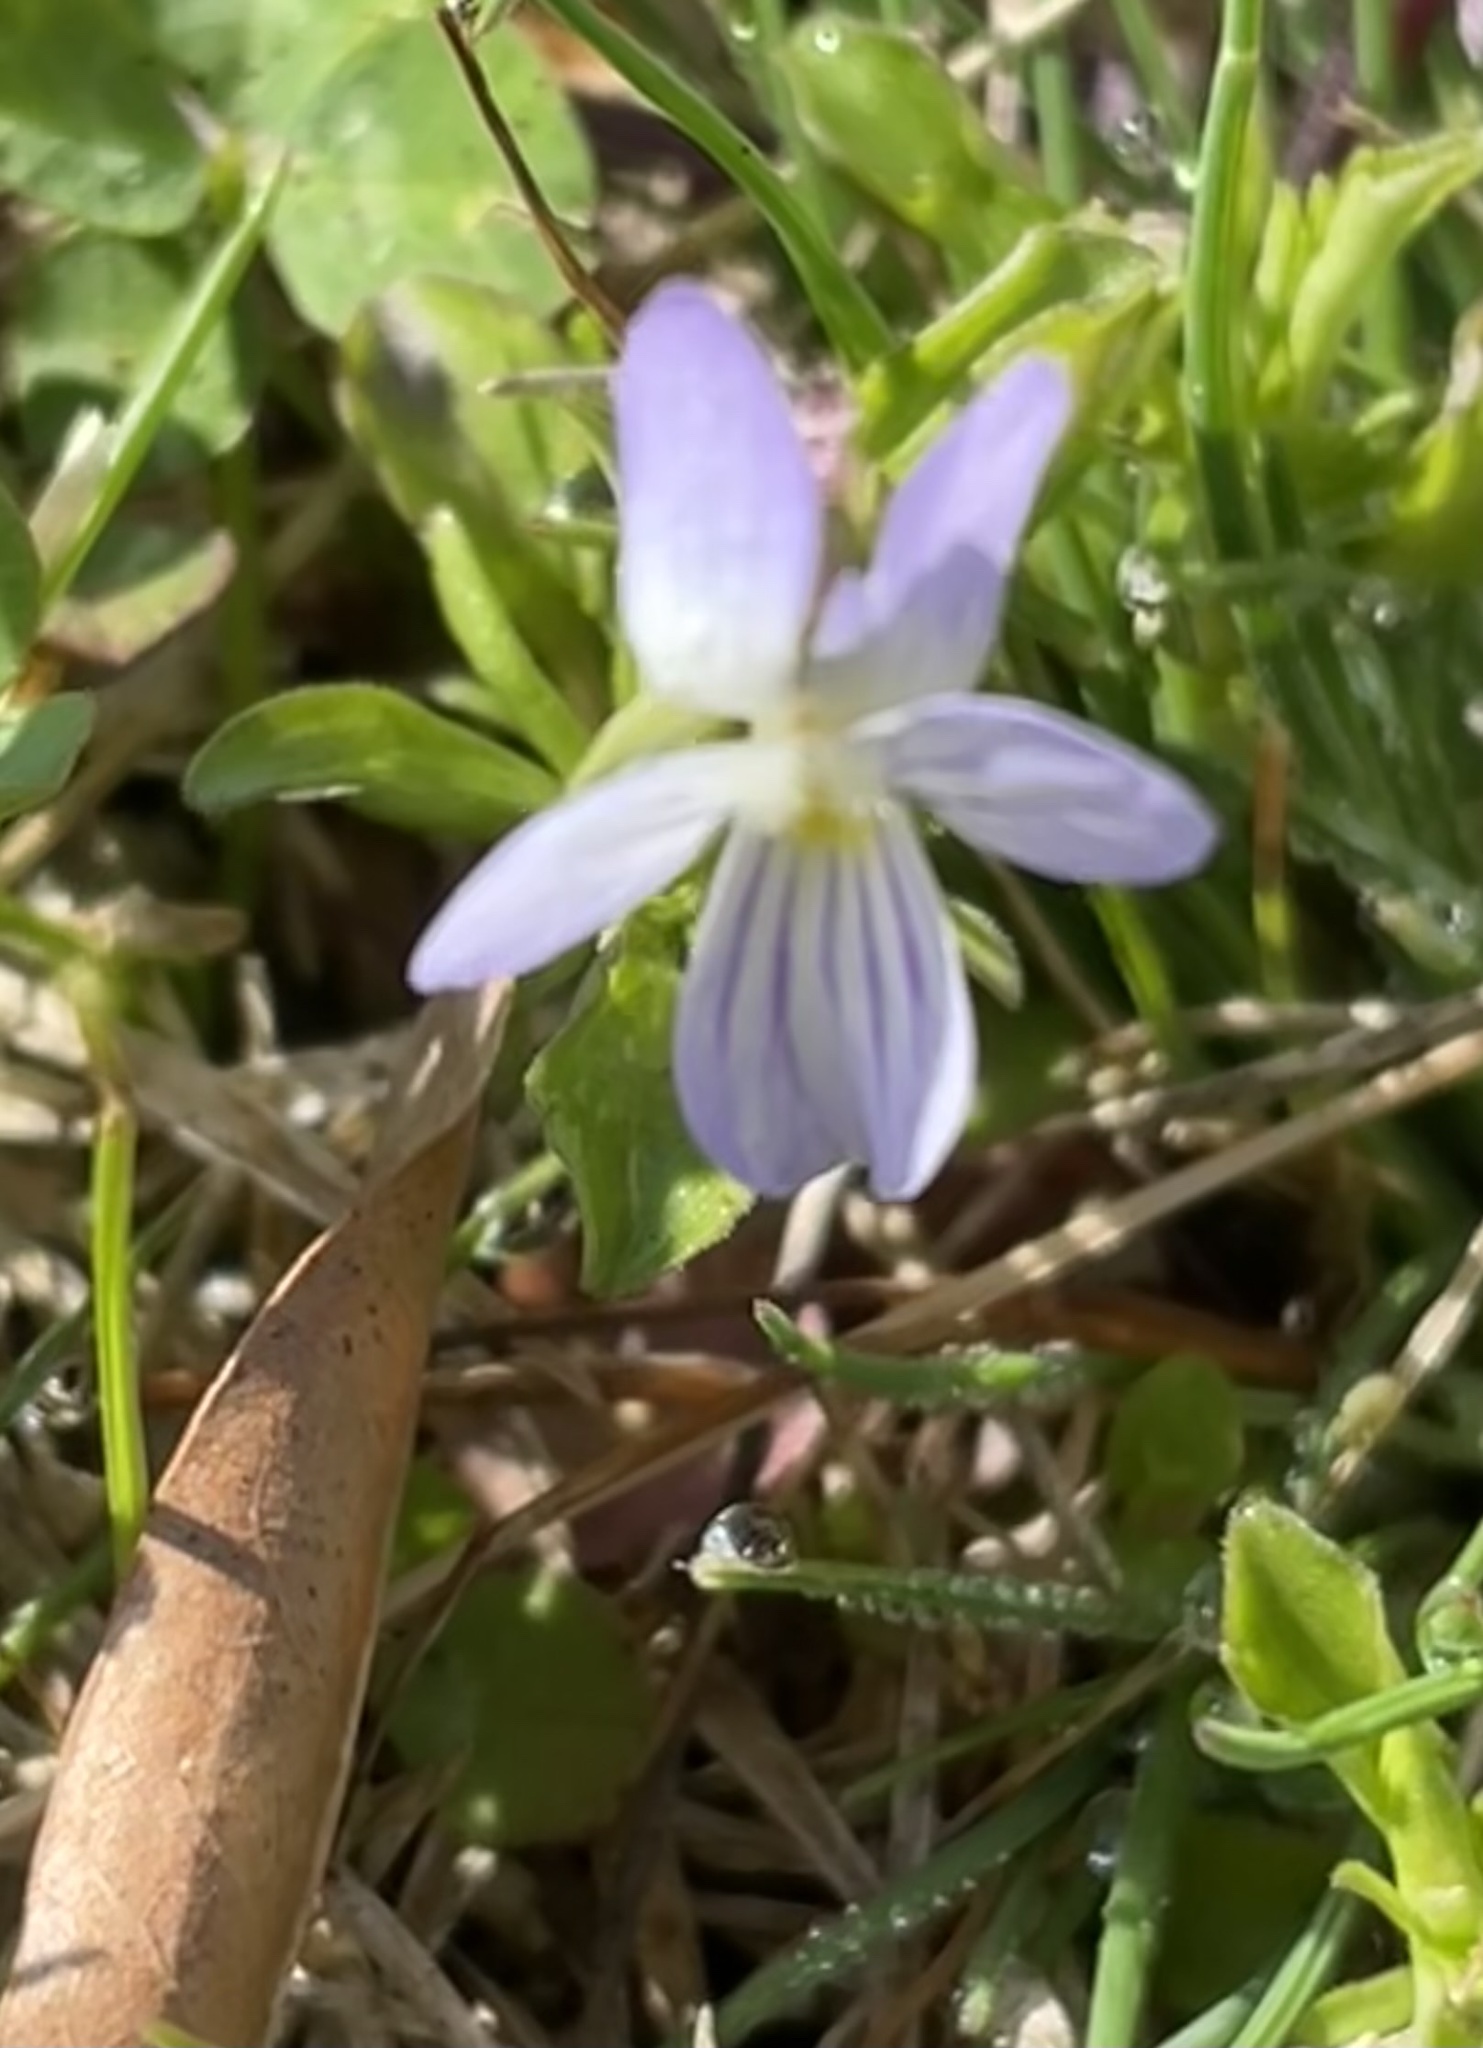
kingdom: Plantae
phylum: Tracheophyta
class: Magnoliopsida
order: Malpighiales
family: Violaceae
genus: Viola
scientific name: Viola rafinesquei
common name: American field pansy
